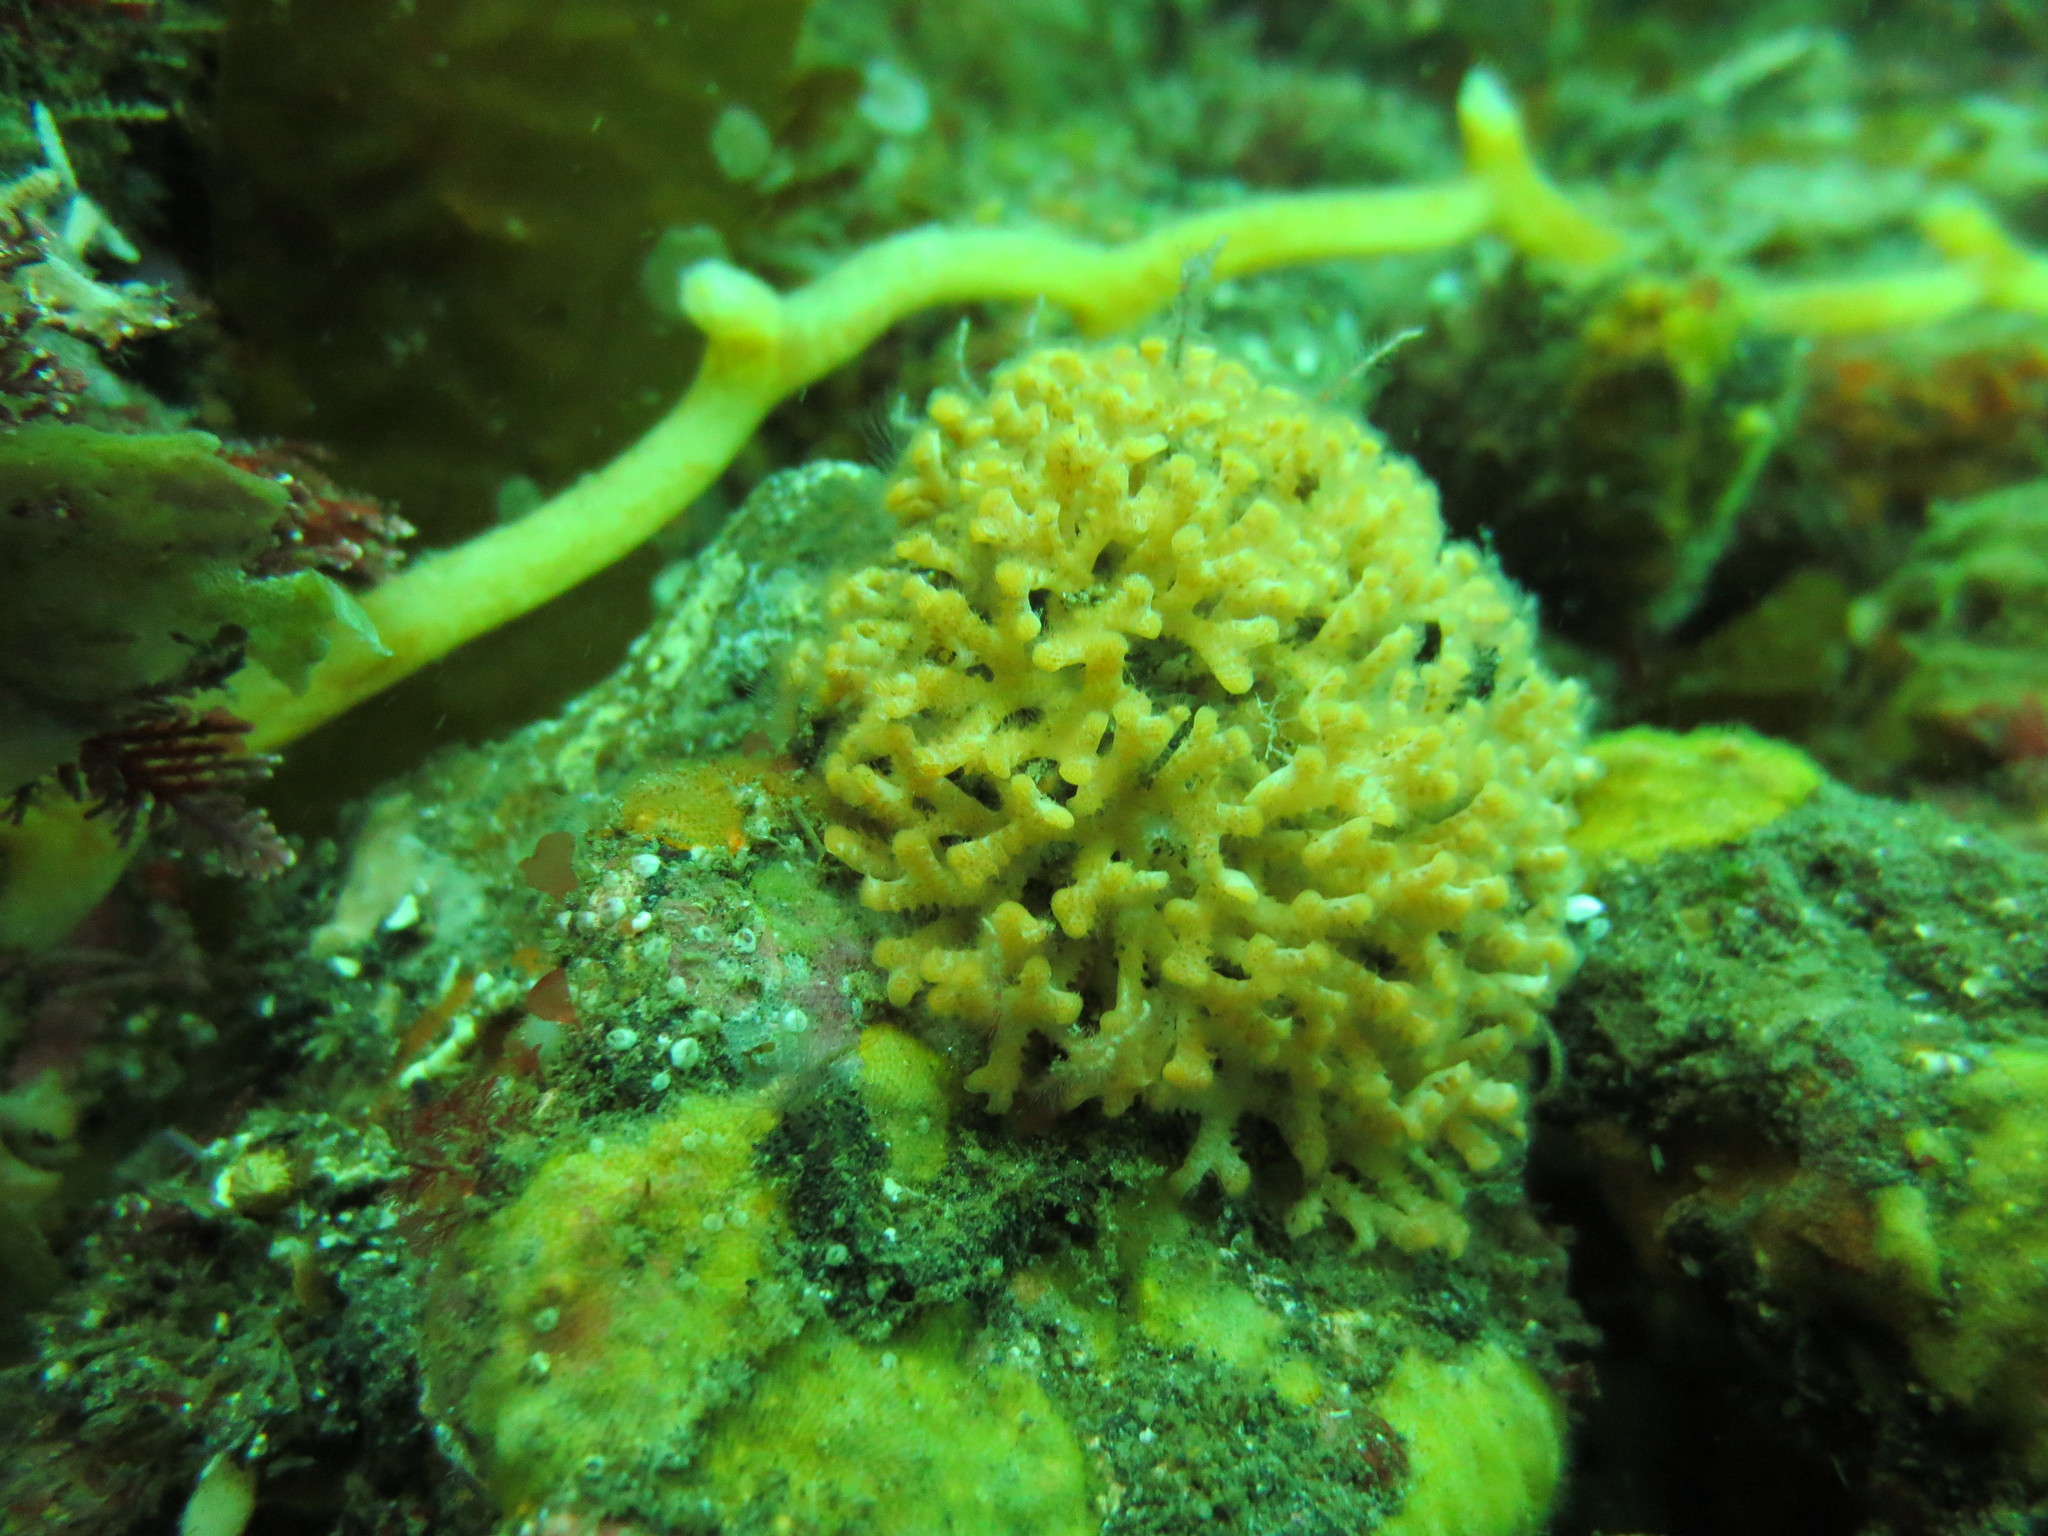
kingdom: Animalia
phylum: Bryozoa
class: Stenolaemata
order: Cyclostomatida
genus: Diaperoforma
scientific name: Diaperoforma californica
